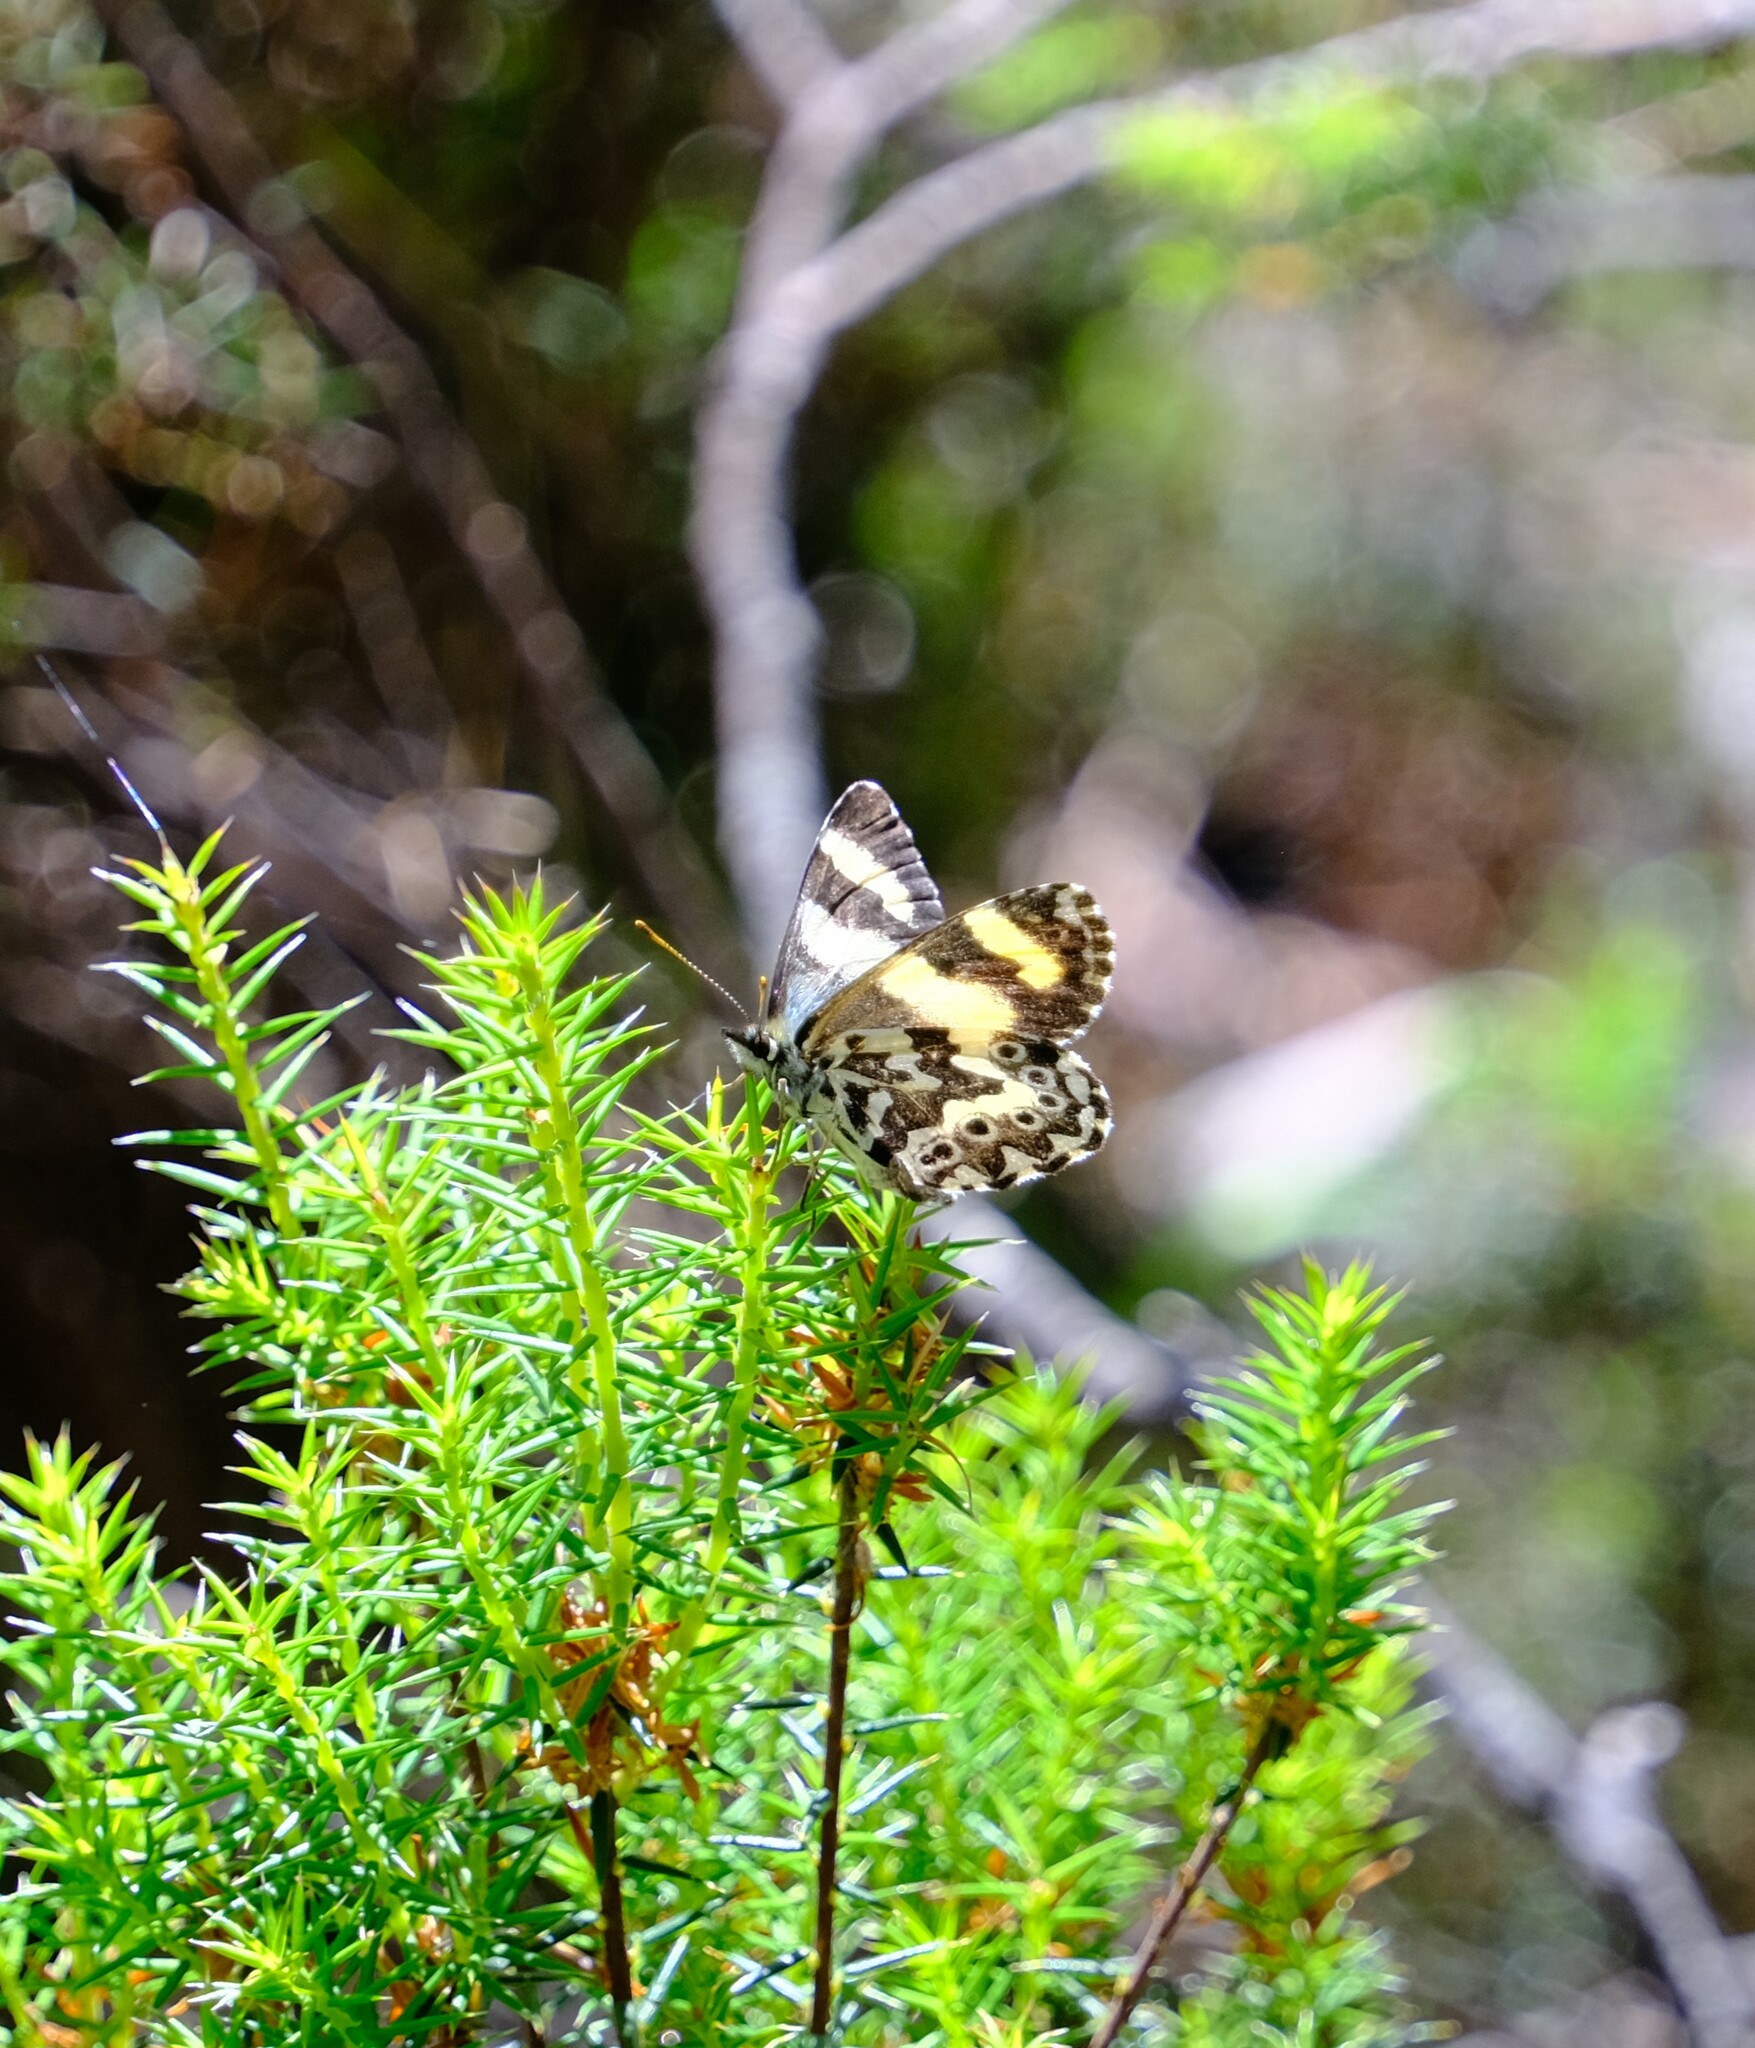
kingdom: Animalia
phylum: Arthropoda
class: Insecta
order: Lepidoptera
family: Nymphalidae
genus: Nesoxenica
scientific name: Nesoxenica leprea
